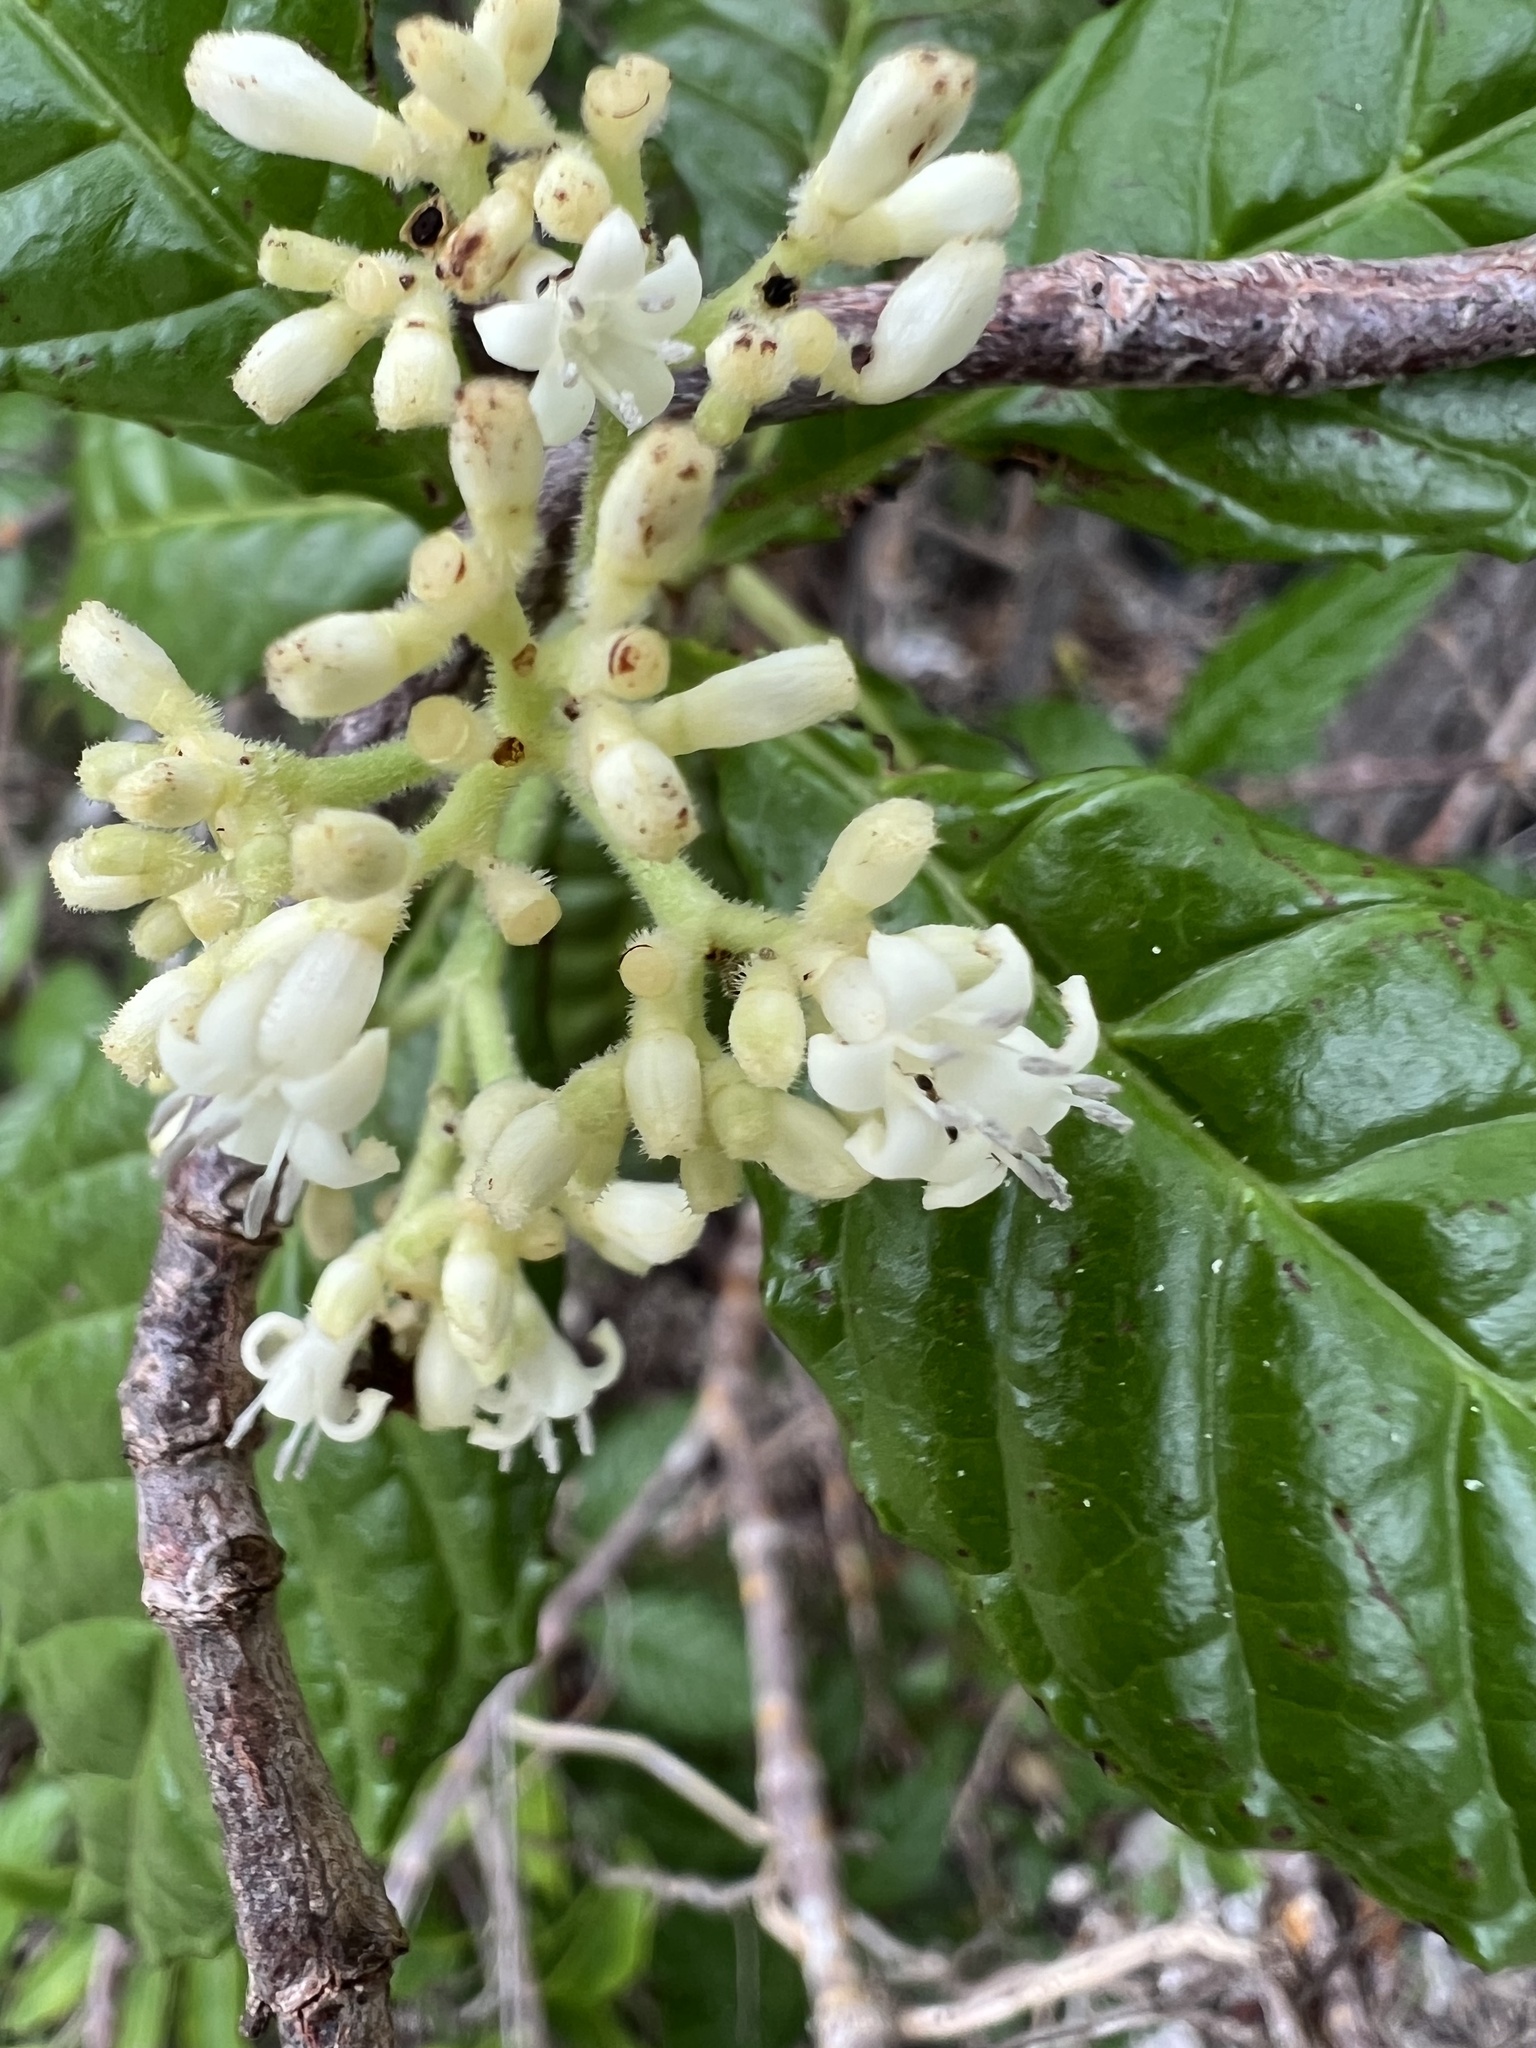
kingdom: Plantae
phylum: Tracheophyta
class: Magnoliopsida
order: Gentianales
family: Rubiaceae
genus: Psychotria
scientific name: Psychotria nervosa
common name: Bastard cankerberry
